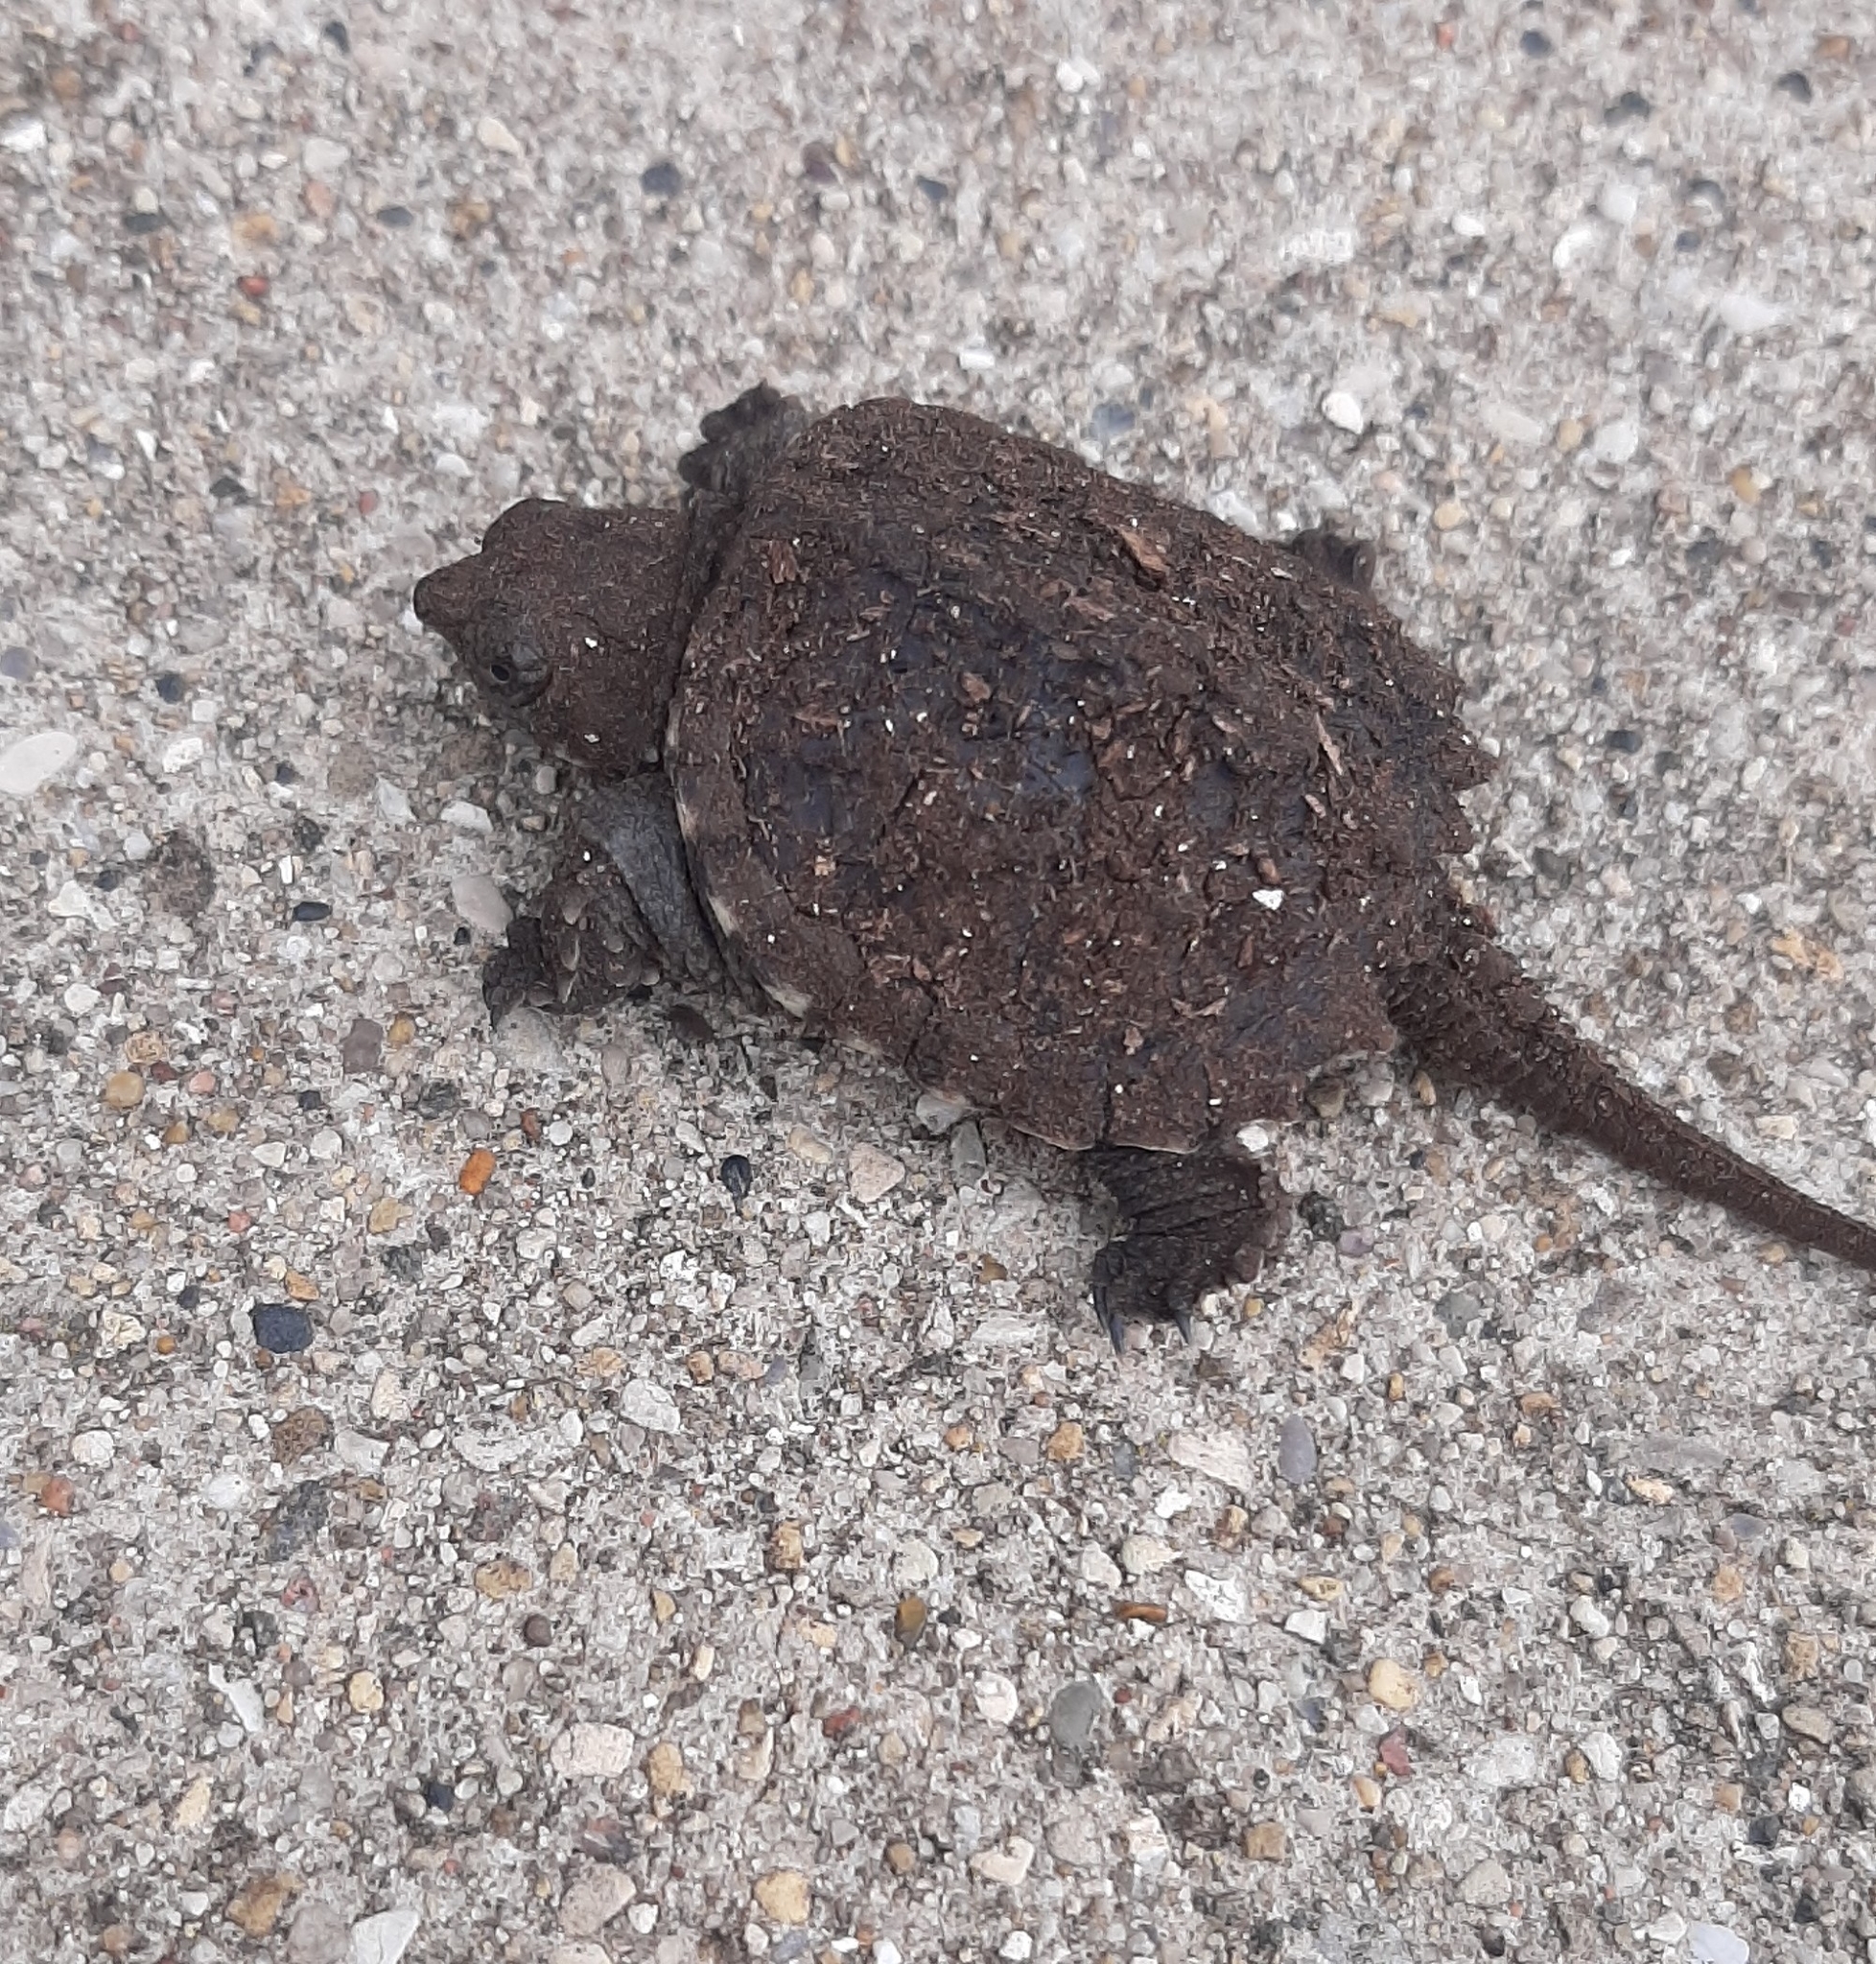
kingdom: Animalia
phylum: Chordata
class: Testudines
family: Chelydridae
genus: Chelydra
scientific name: Chelydra serpentina
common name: Common snapping turtle
